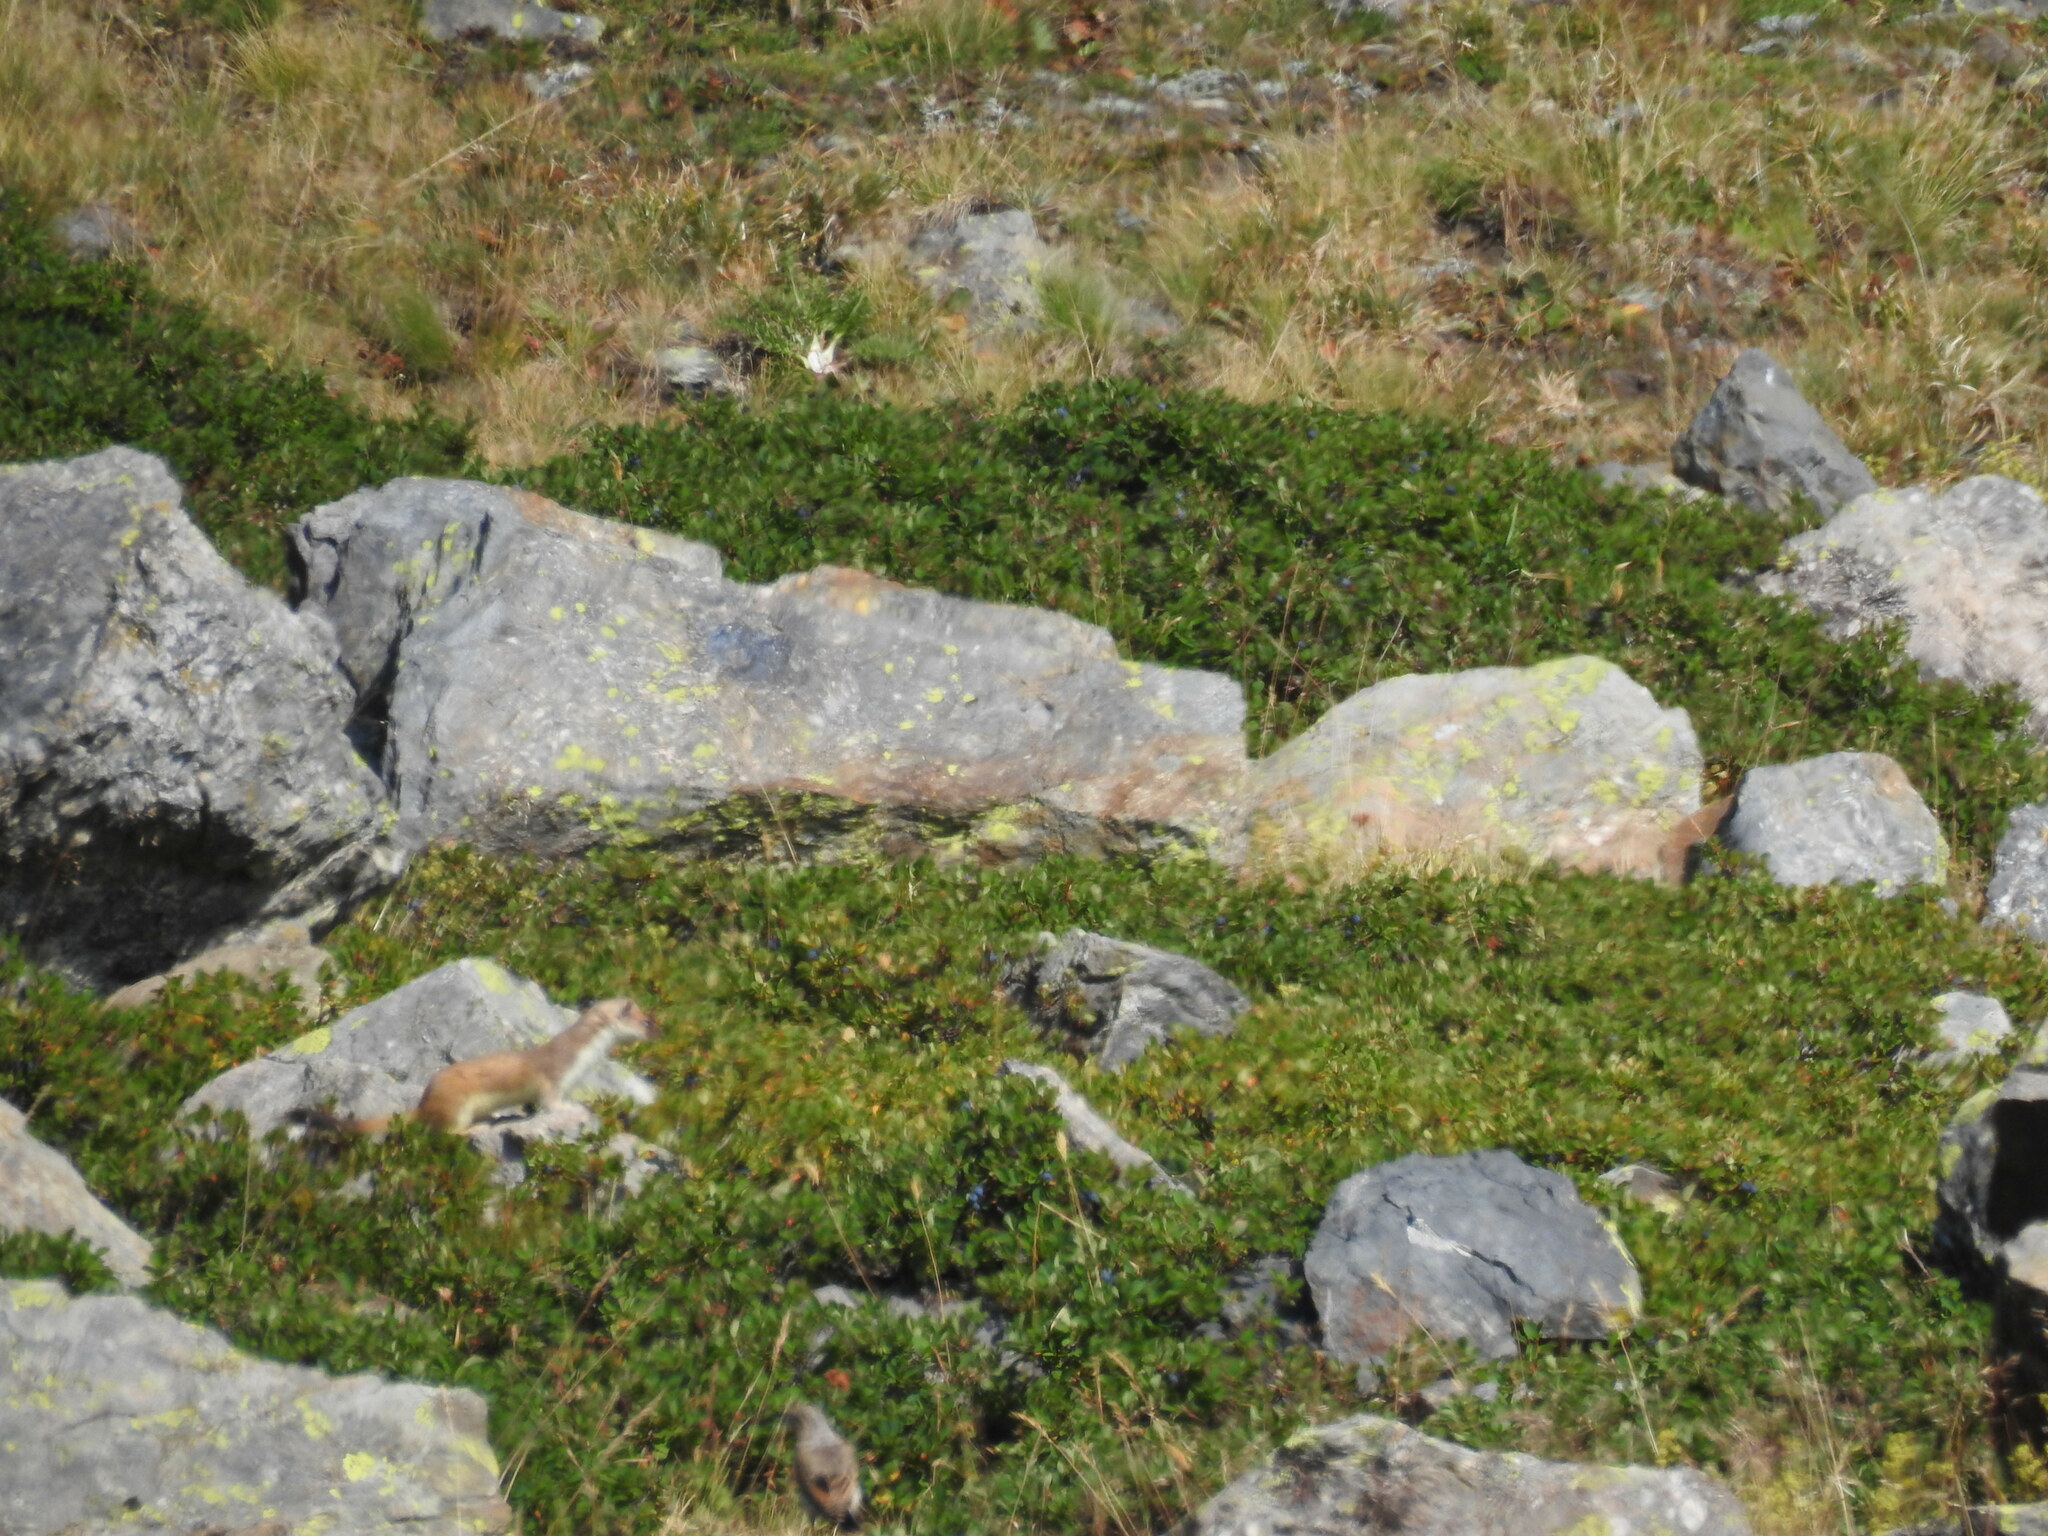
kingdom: Animalia
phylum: Chordata
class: Mammalia
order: Carnivora
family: Mustelidae
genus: Mustela
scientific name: Mustela erminea
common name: Stoat
